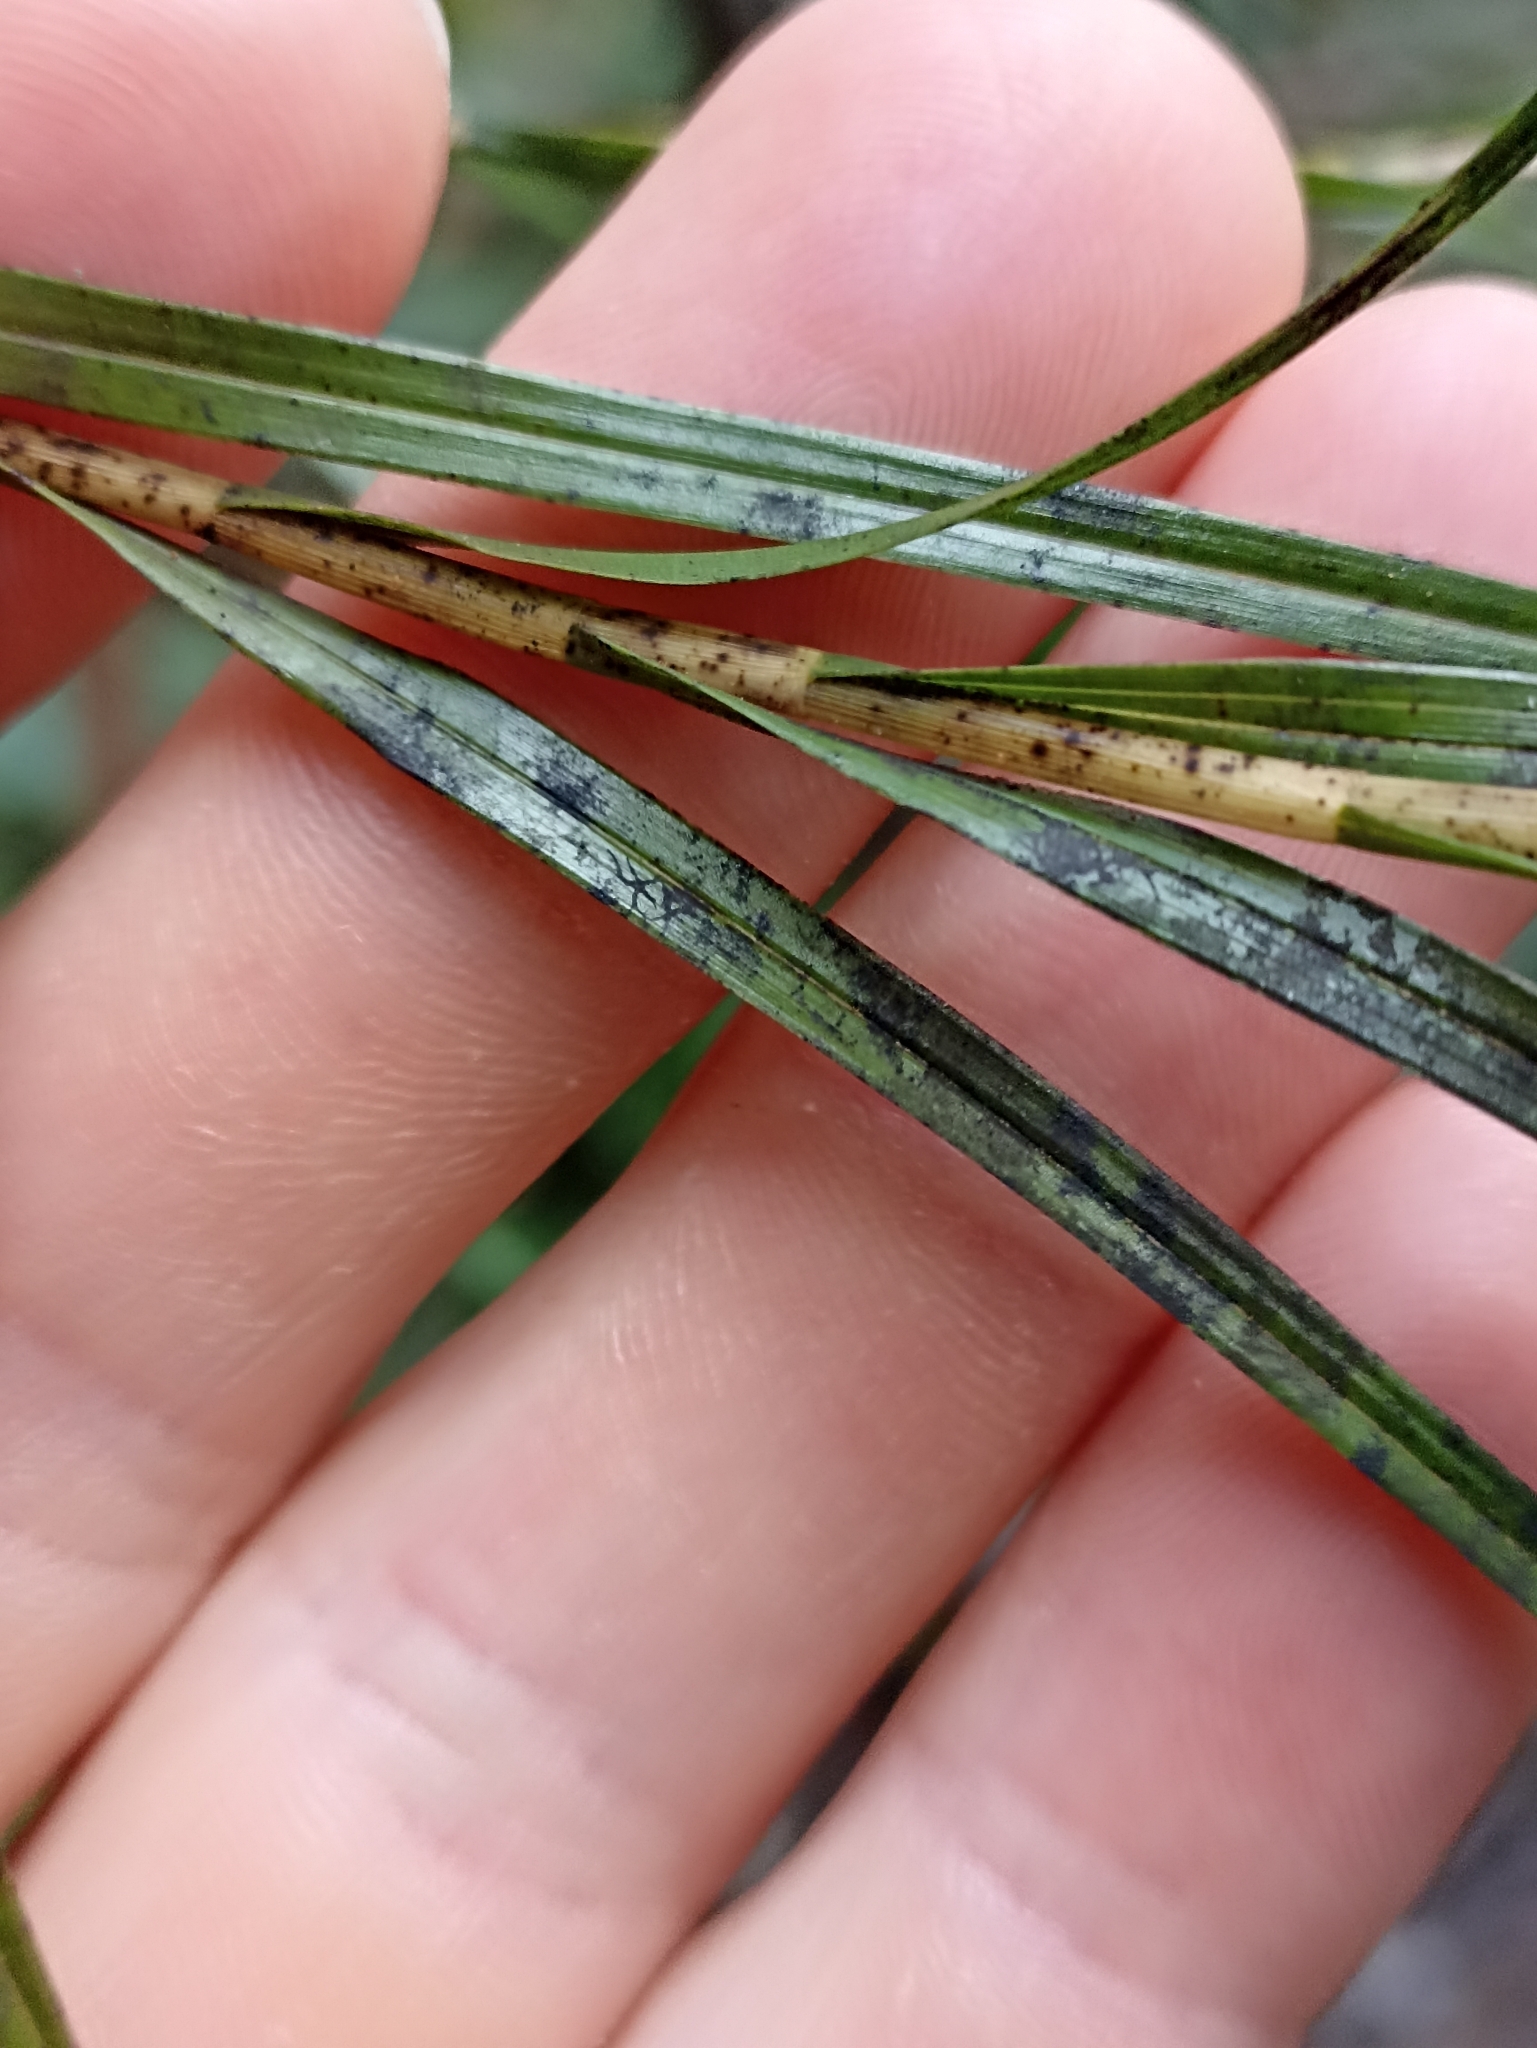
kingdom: Plantae
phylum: Tracheophyta
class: Liliopsida
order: Asparagales
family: Orchidaceae
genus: Earina
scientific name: Earina mucronata
